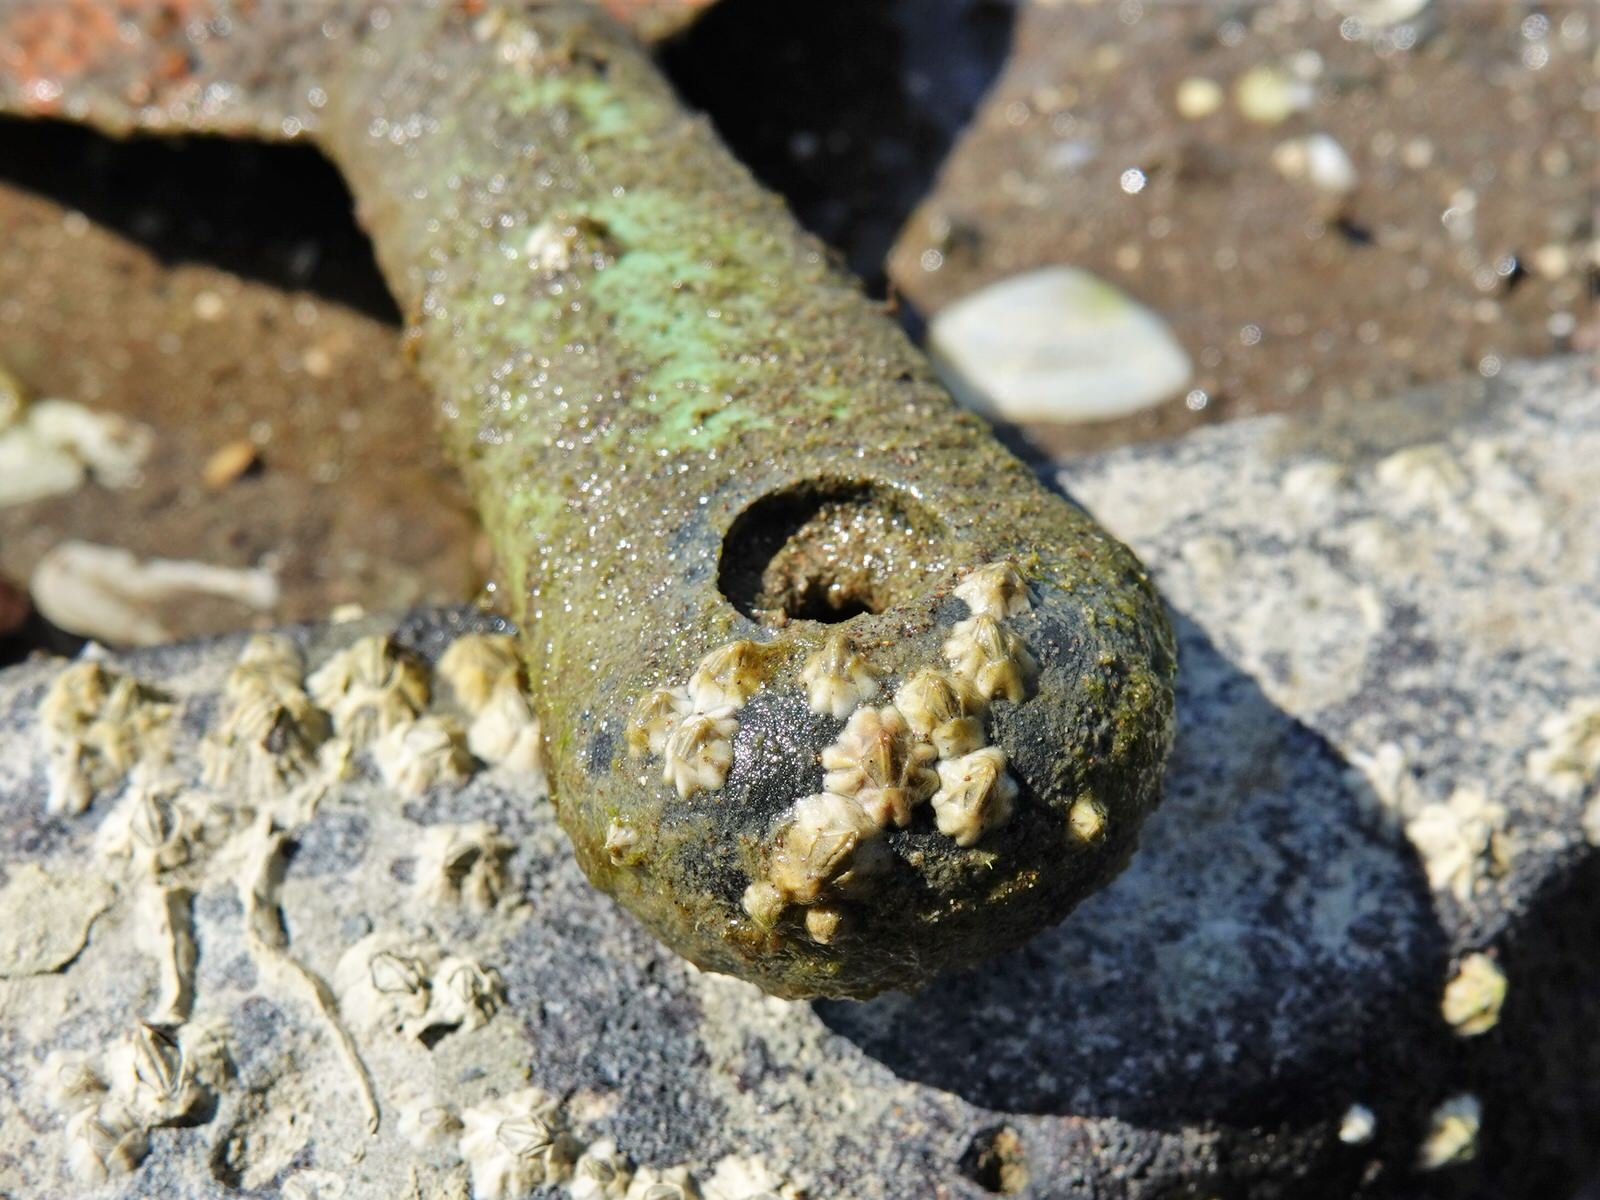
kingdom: Animalia
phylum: Arthropoda
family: Elminiidae
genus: Austrominius
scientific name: Austrominius modestus
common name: Australasian barnacle
